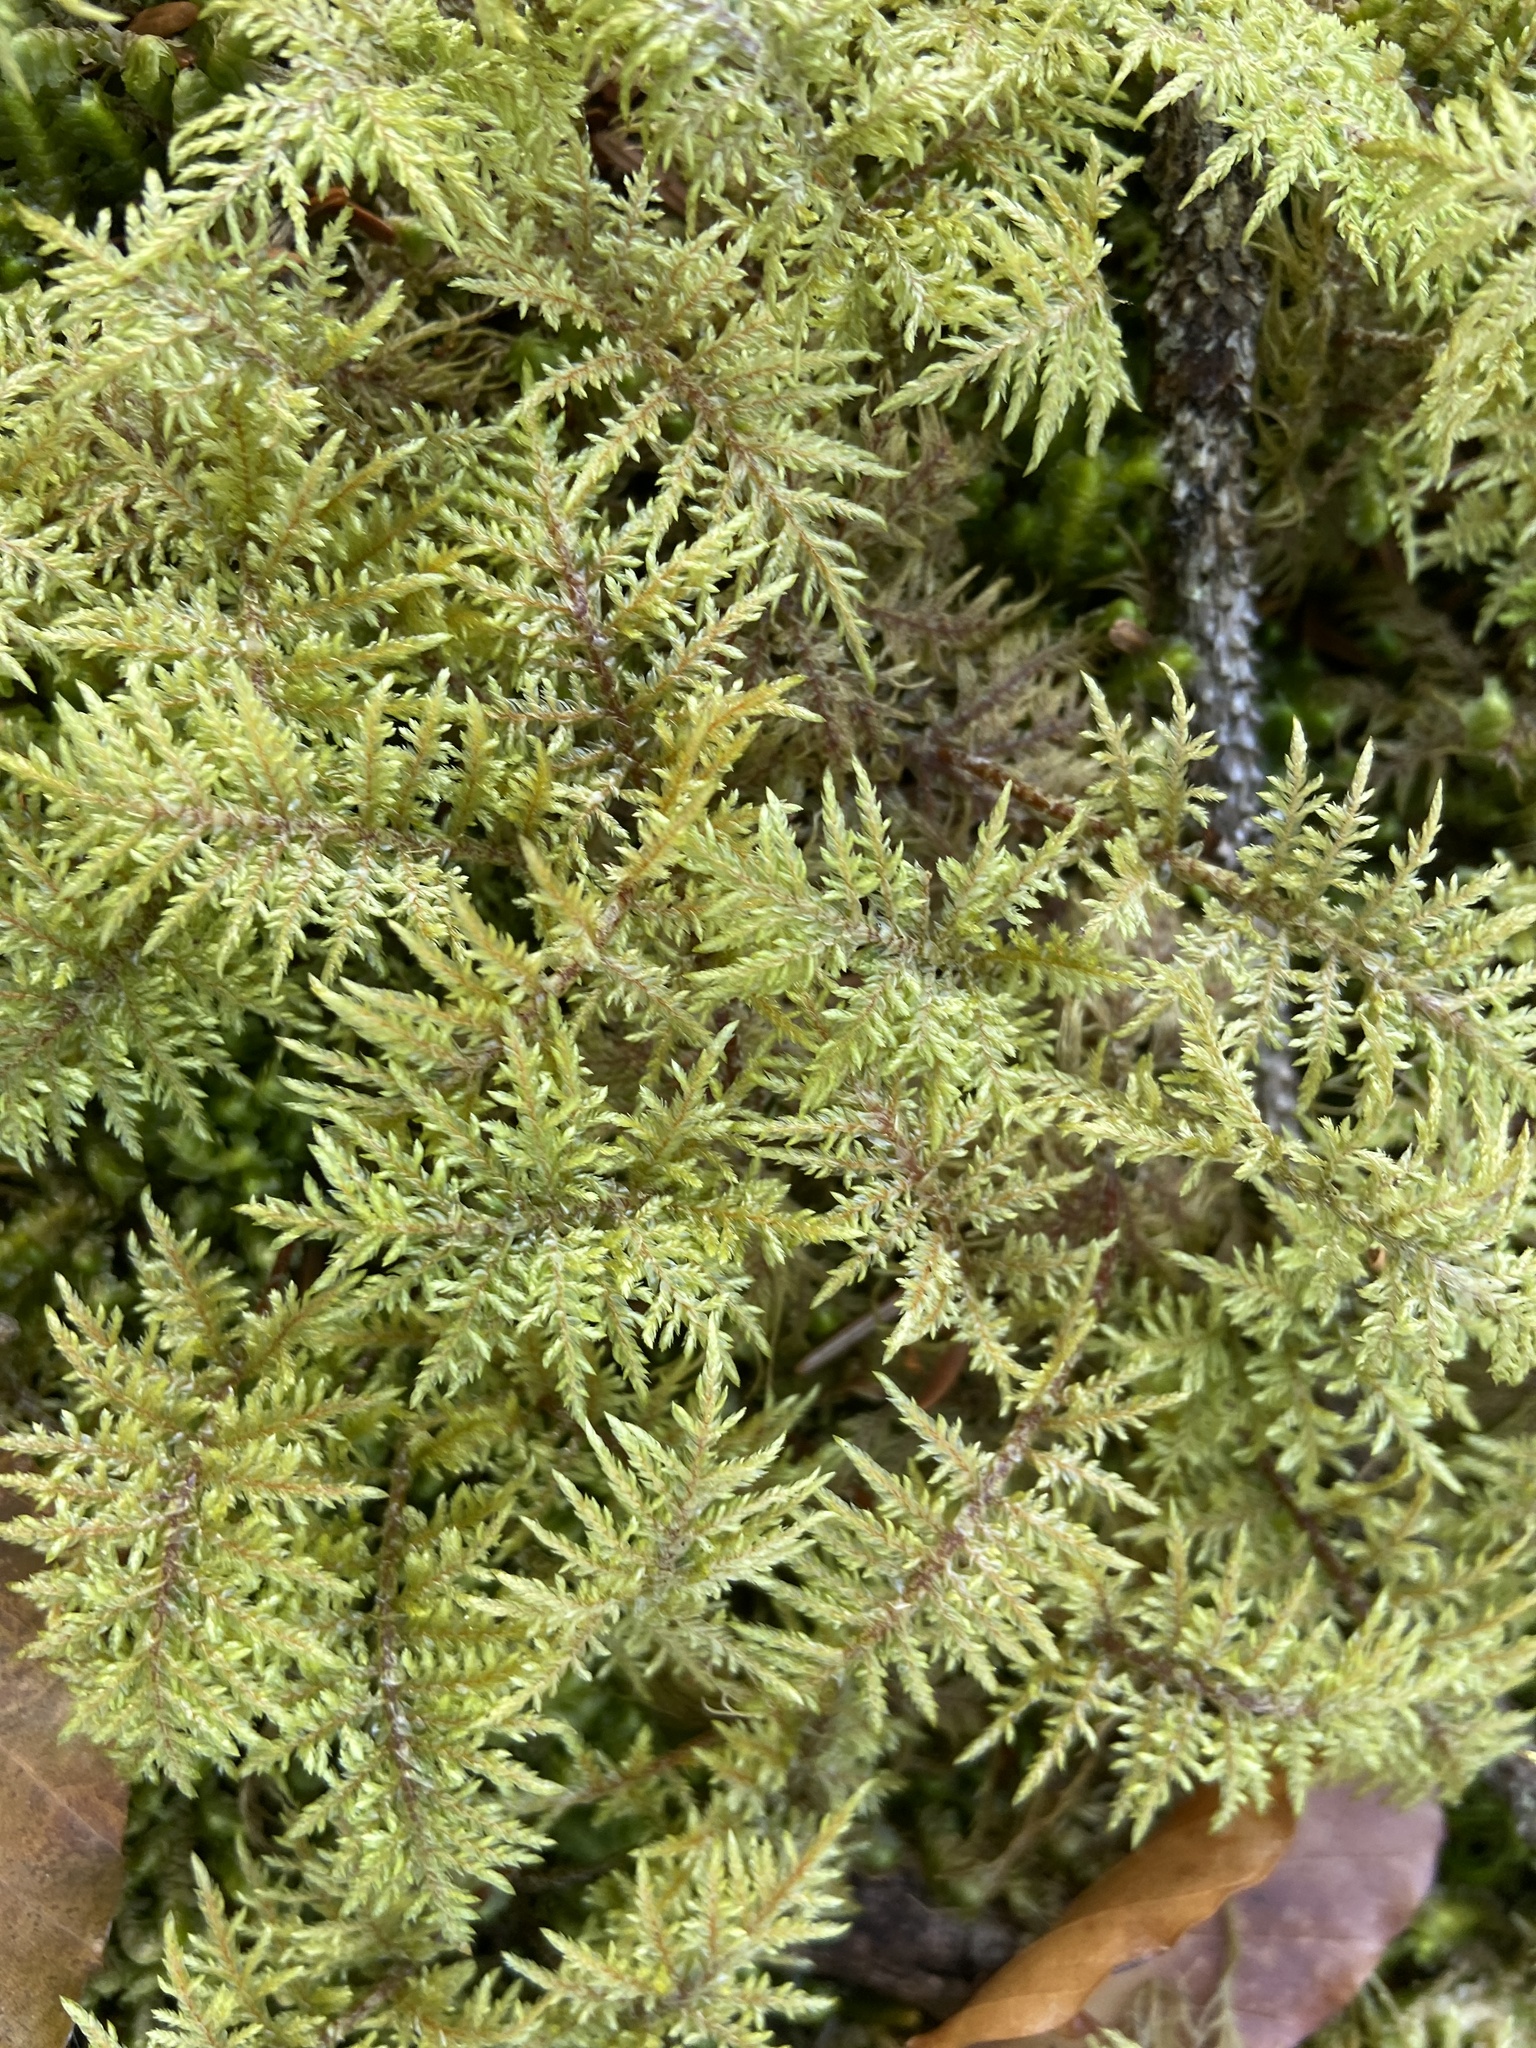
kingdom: Plantae
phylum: Bryophyta
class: Bryopsida
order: Hypnales
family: Hylocomiaceae
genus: Hylocomium
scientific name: Hylocomium splendens
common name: Stairstep moss
